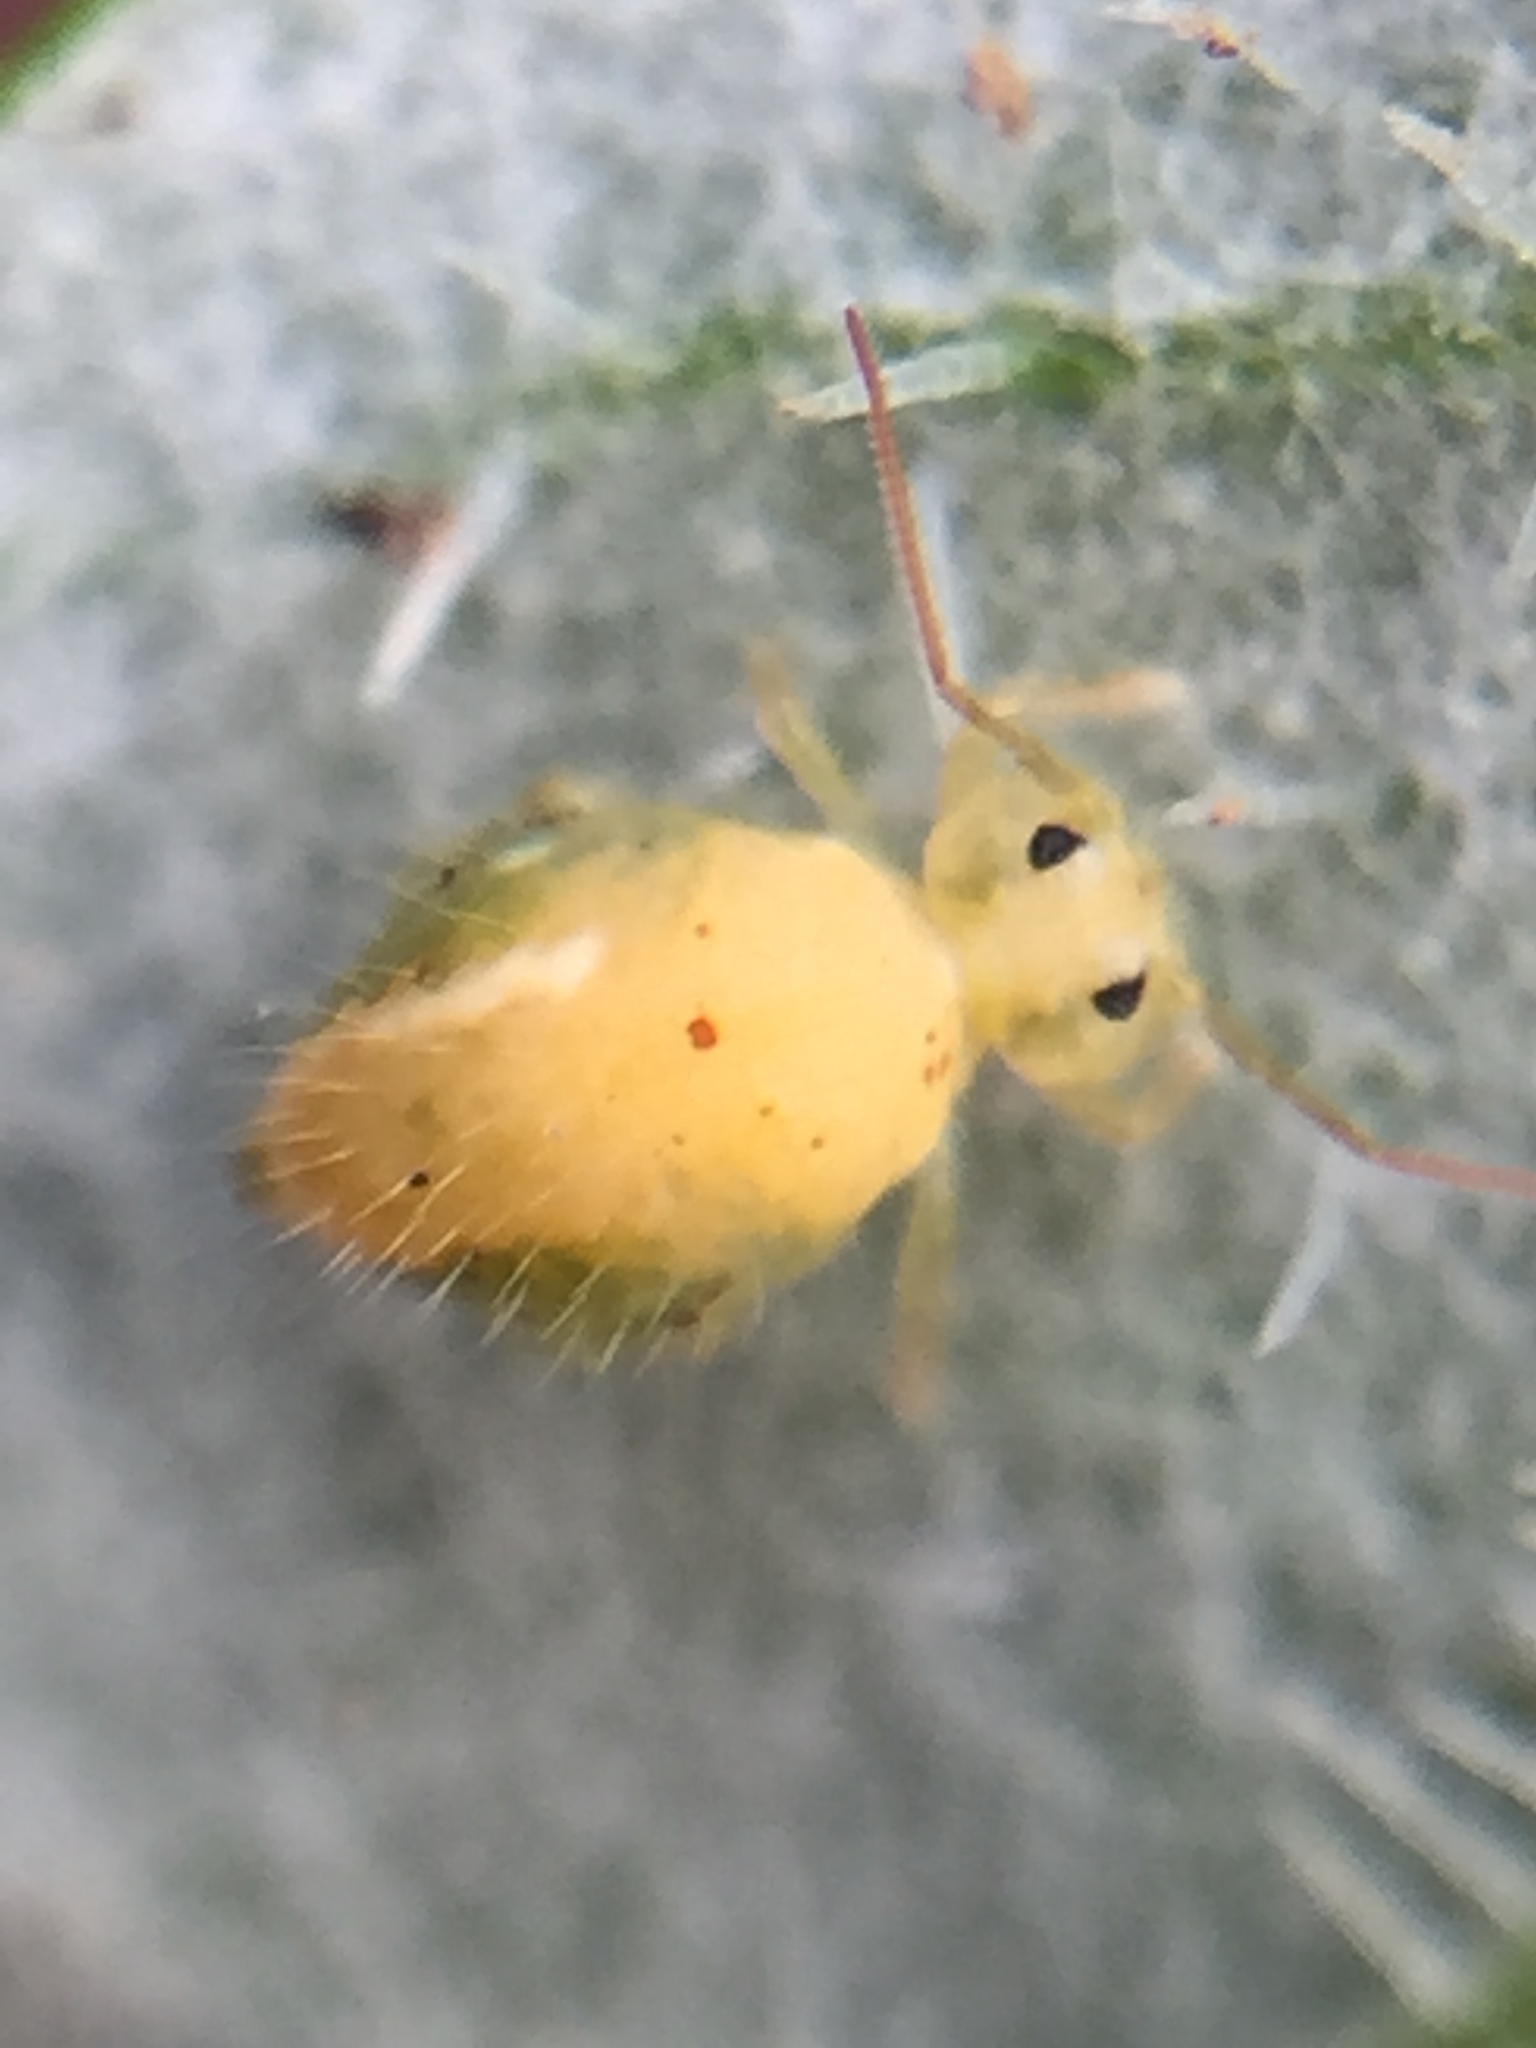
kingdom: Animalia
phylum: Arthropoda
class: Collembola
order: Symphypleona
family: Sminthuridae
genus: Sminthurus
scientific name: Sminthurus viridis
